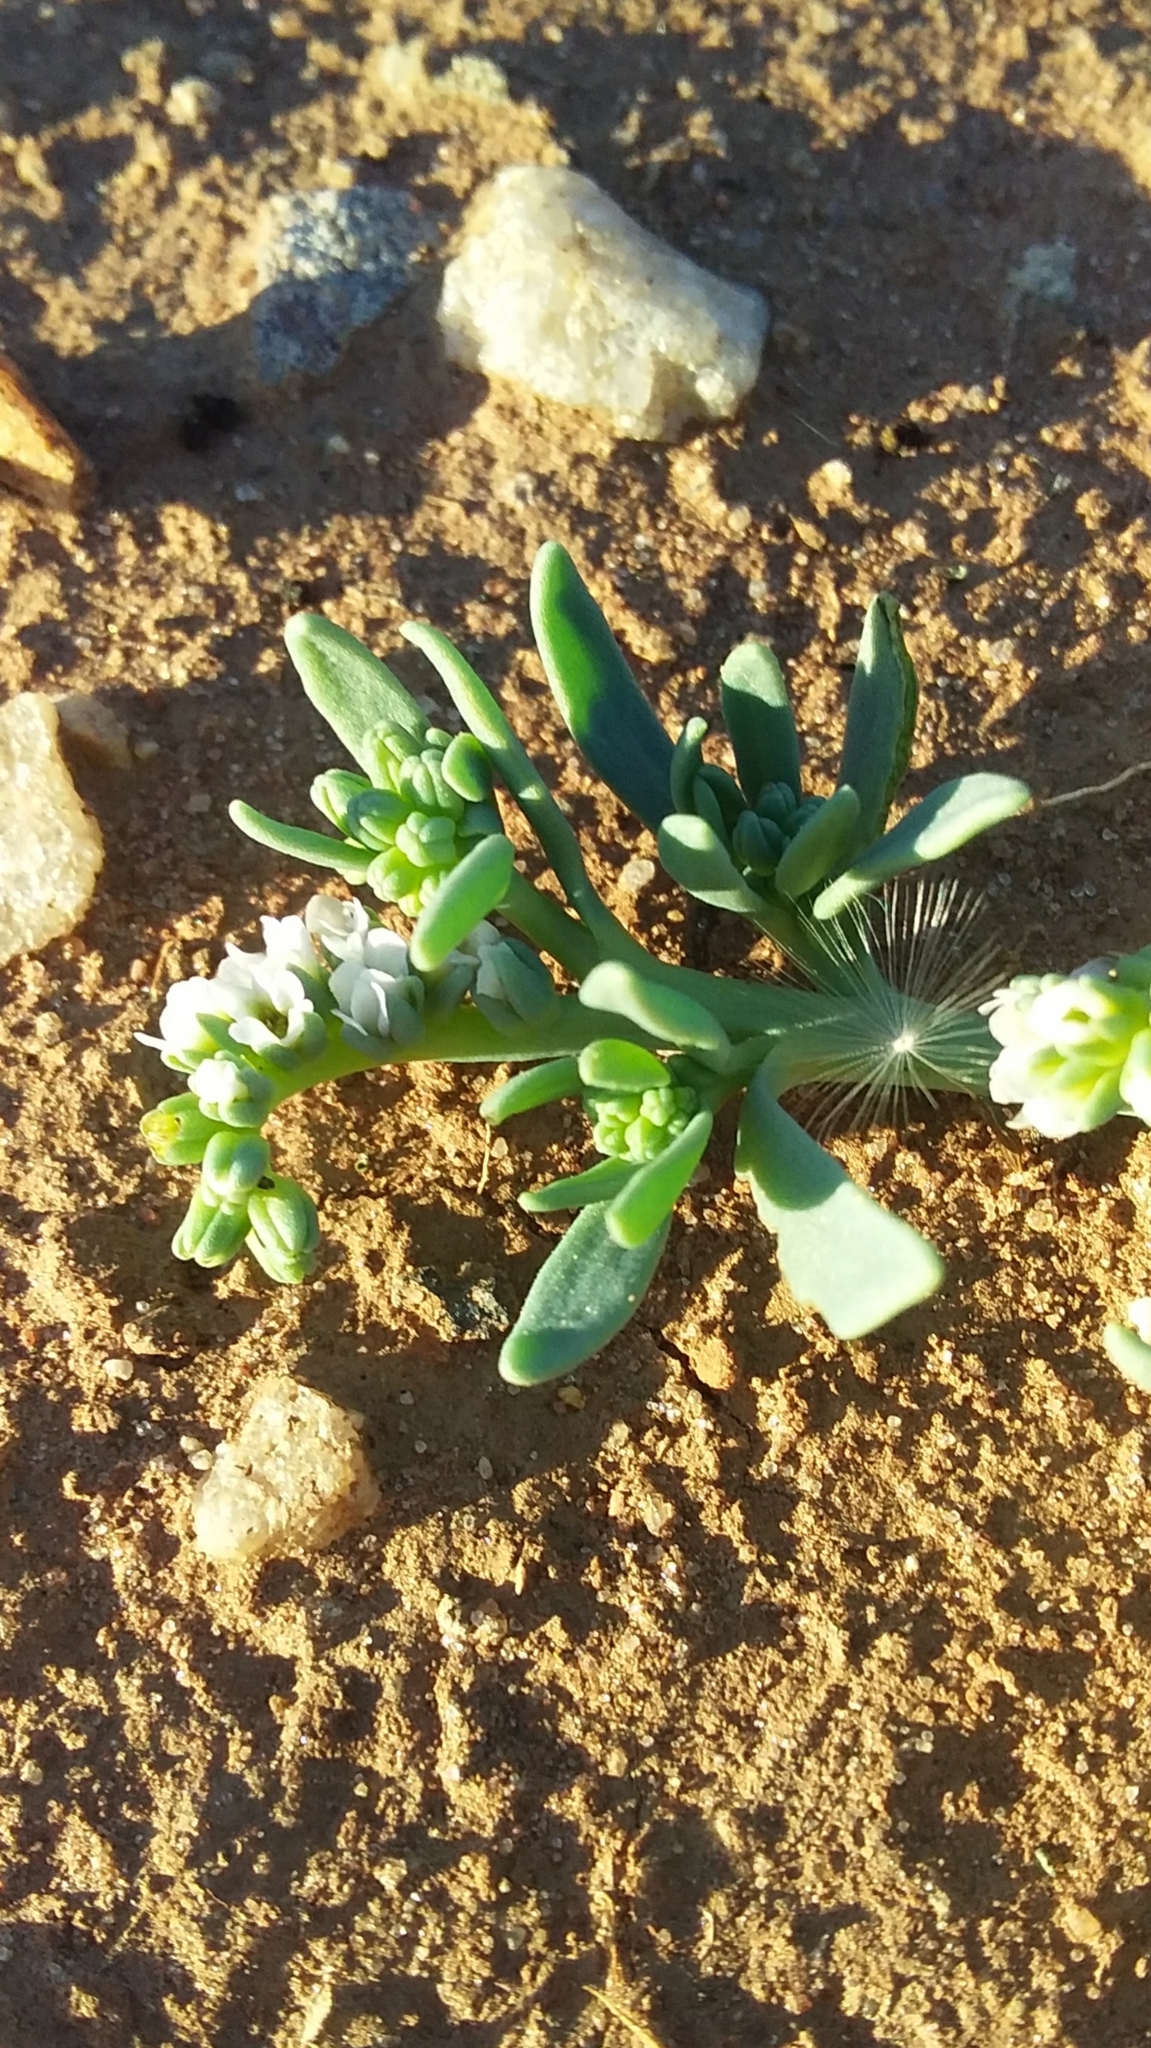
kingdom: Plantae
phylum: Tracheophyta
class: Magnoliopsida
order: Boraginales
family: Heliotropiaceae
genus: Heliotropium
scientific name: Heliotropium curassavicum
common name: Seaside heliotrope
